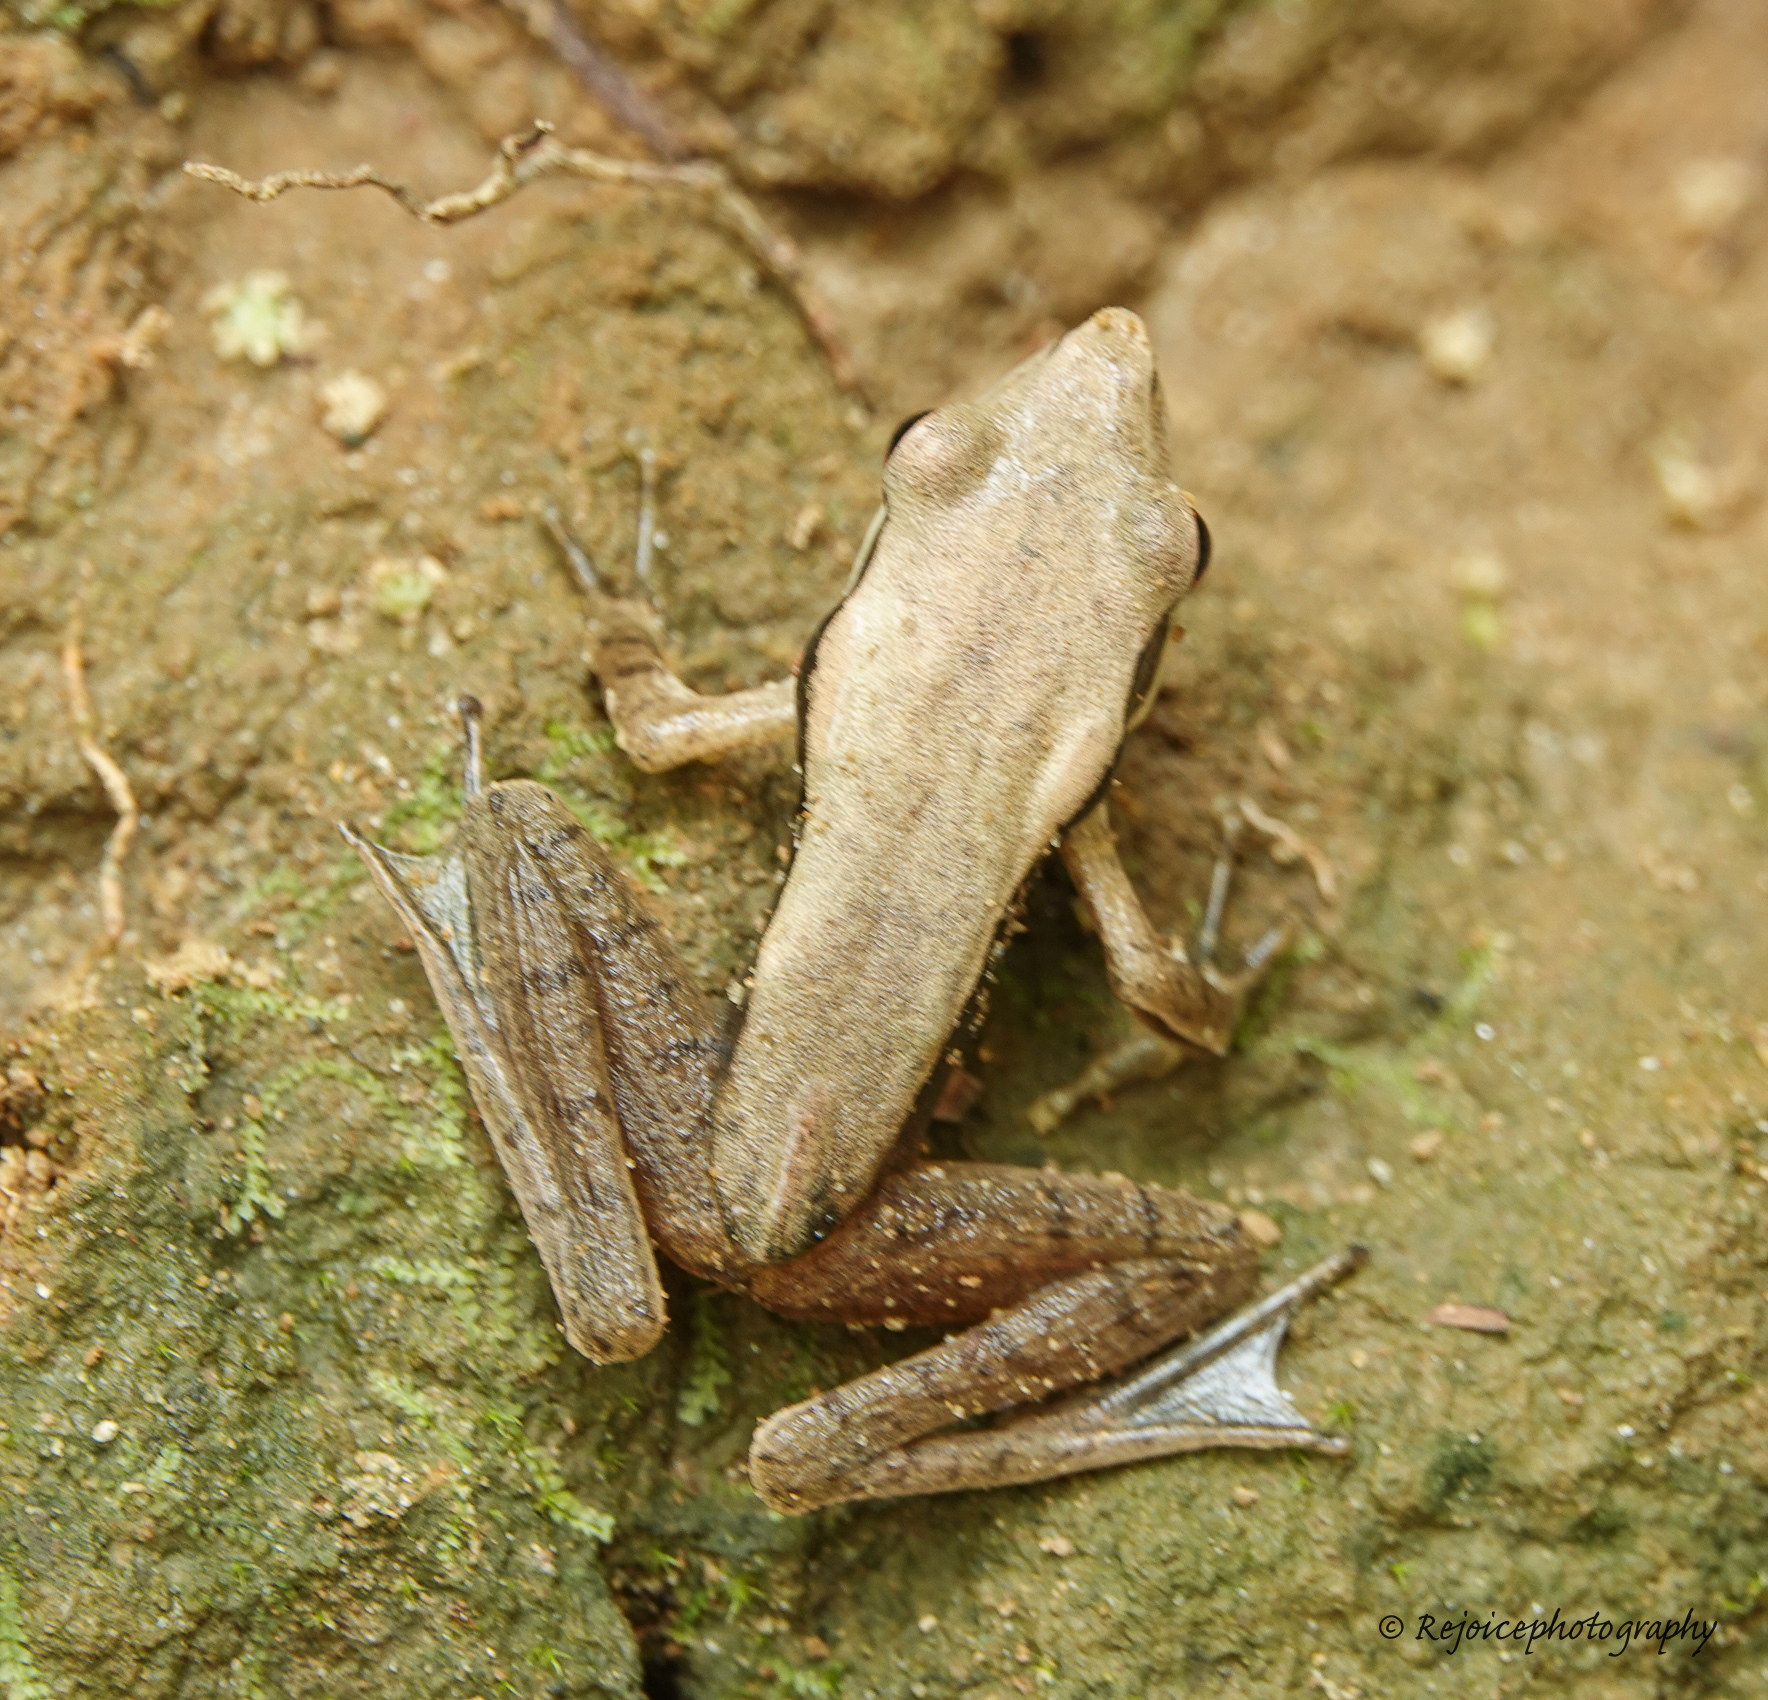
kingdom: Animalia
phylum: Chordata
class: Amphibia
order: Anura
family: Ranidae
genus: Clinotarsus
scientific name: Clinotarsus alticola
